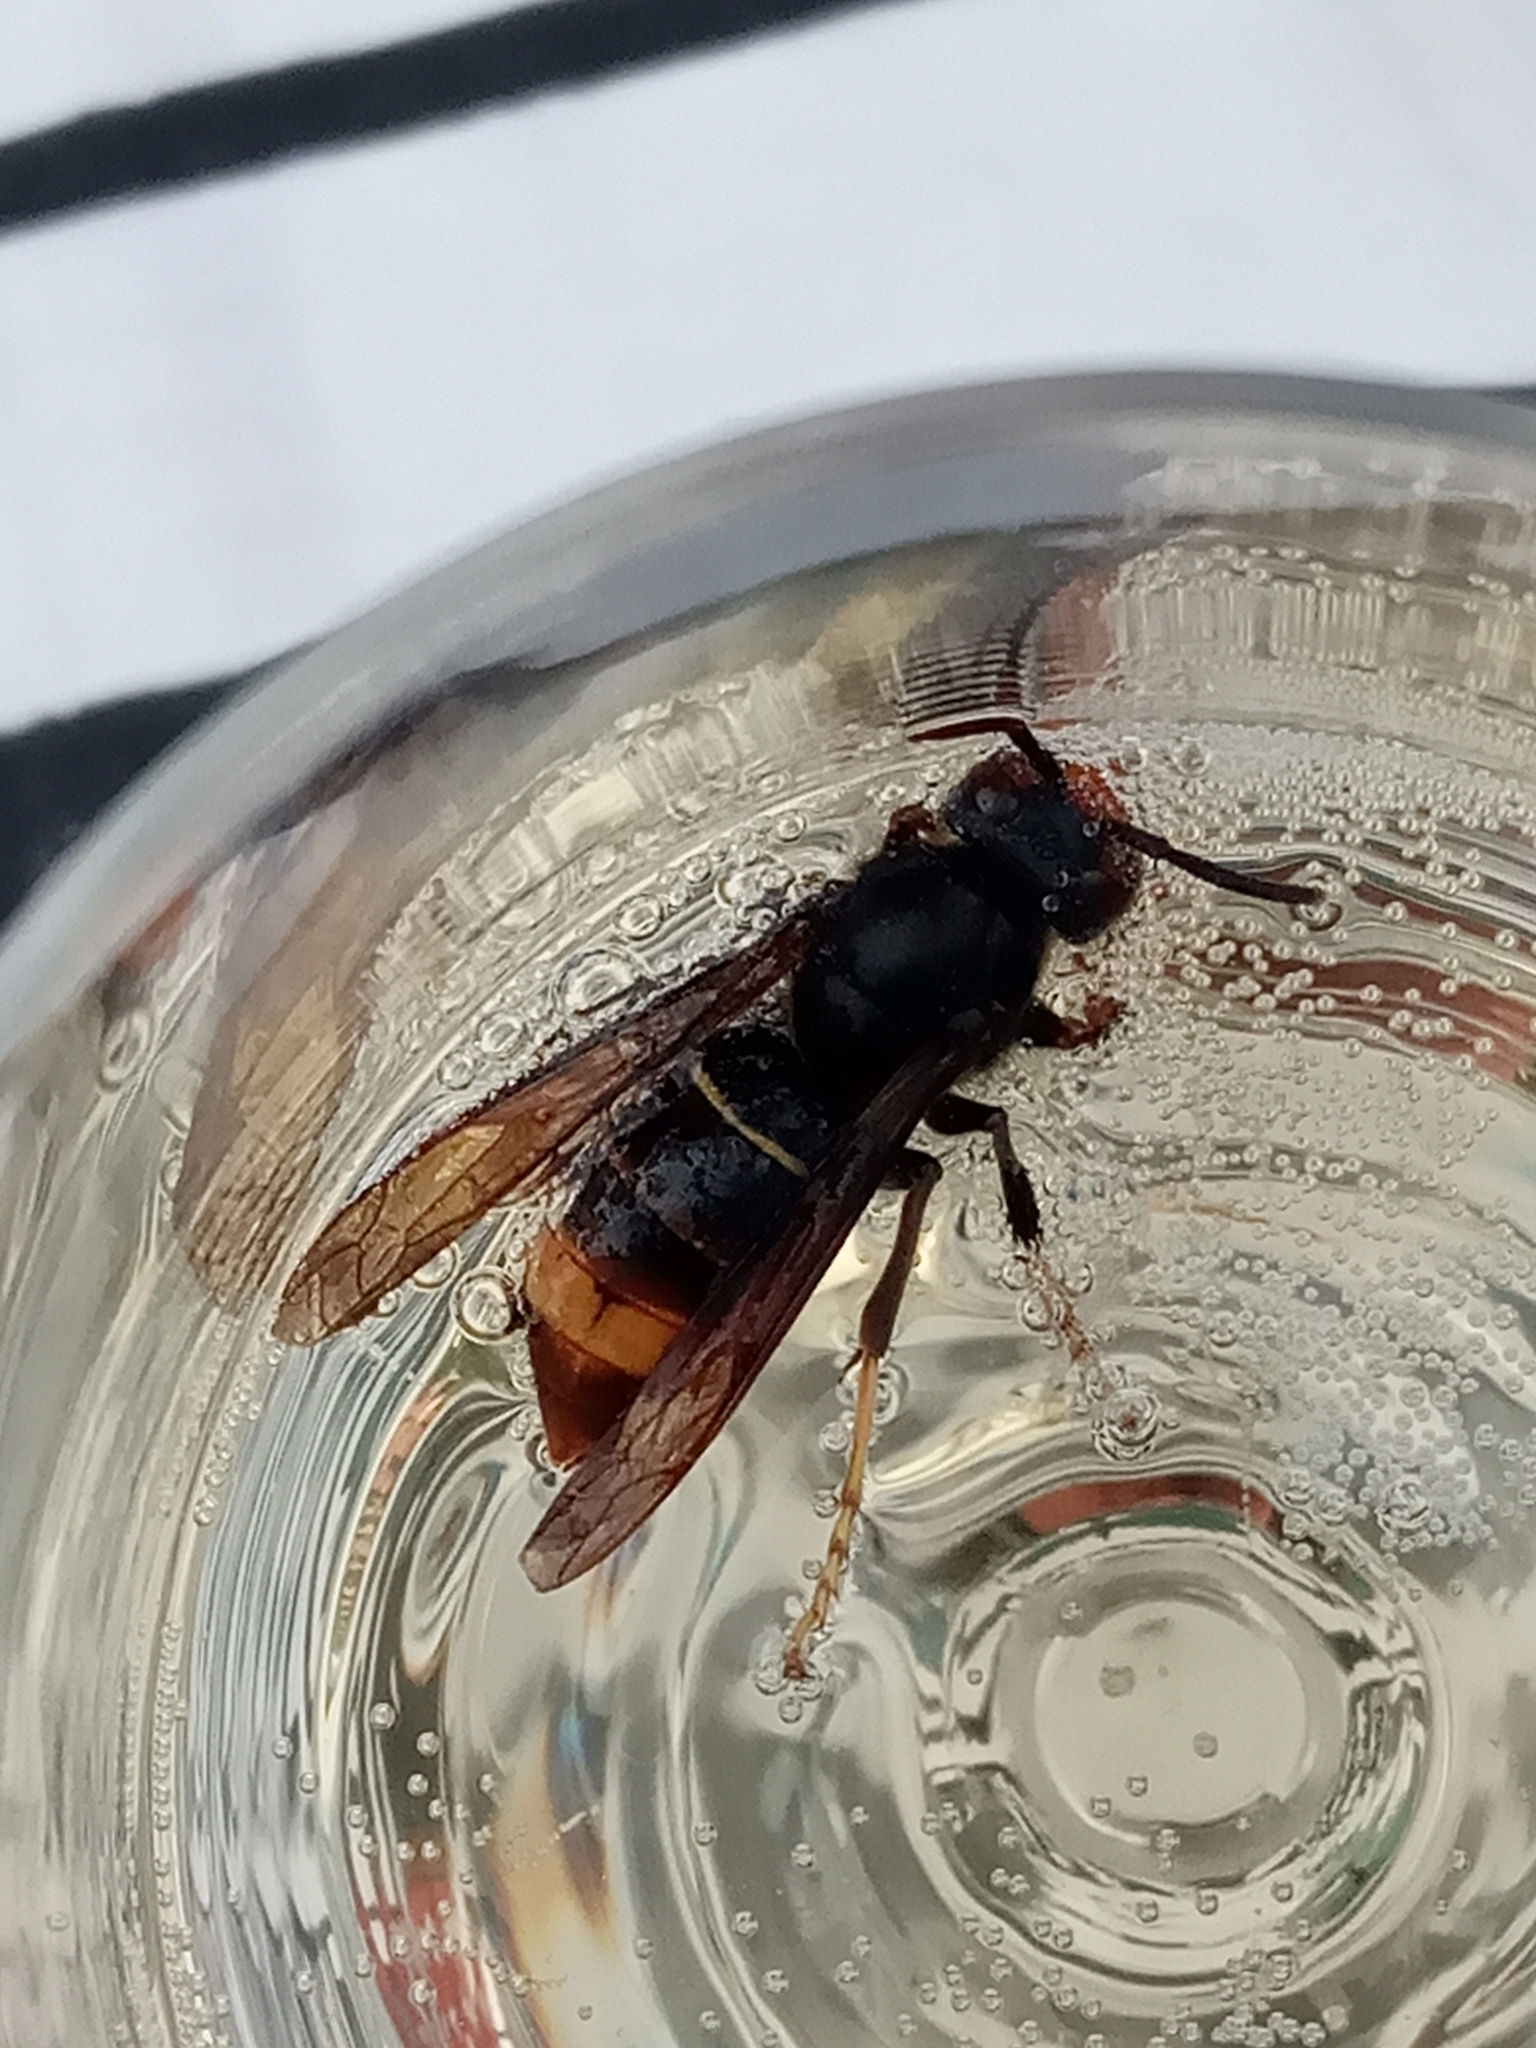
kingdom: Animalia
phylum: Arthropoda
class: Insecta
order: Hymenoptera
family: Vespidae
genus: Vespa
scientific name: Vespa velutina
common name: Asian hornet
